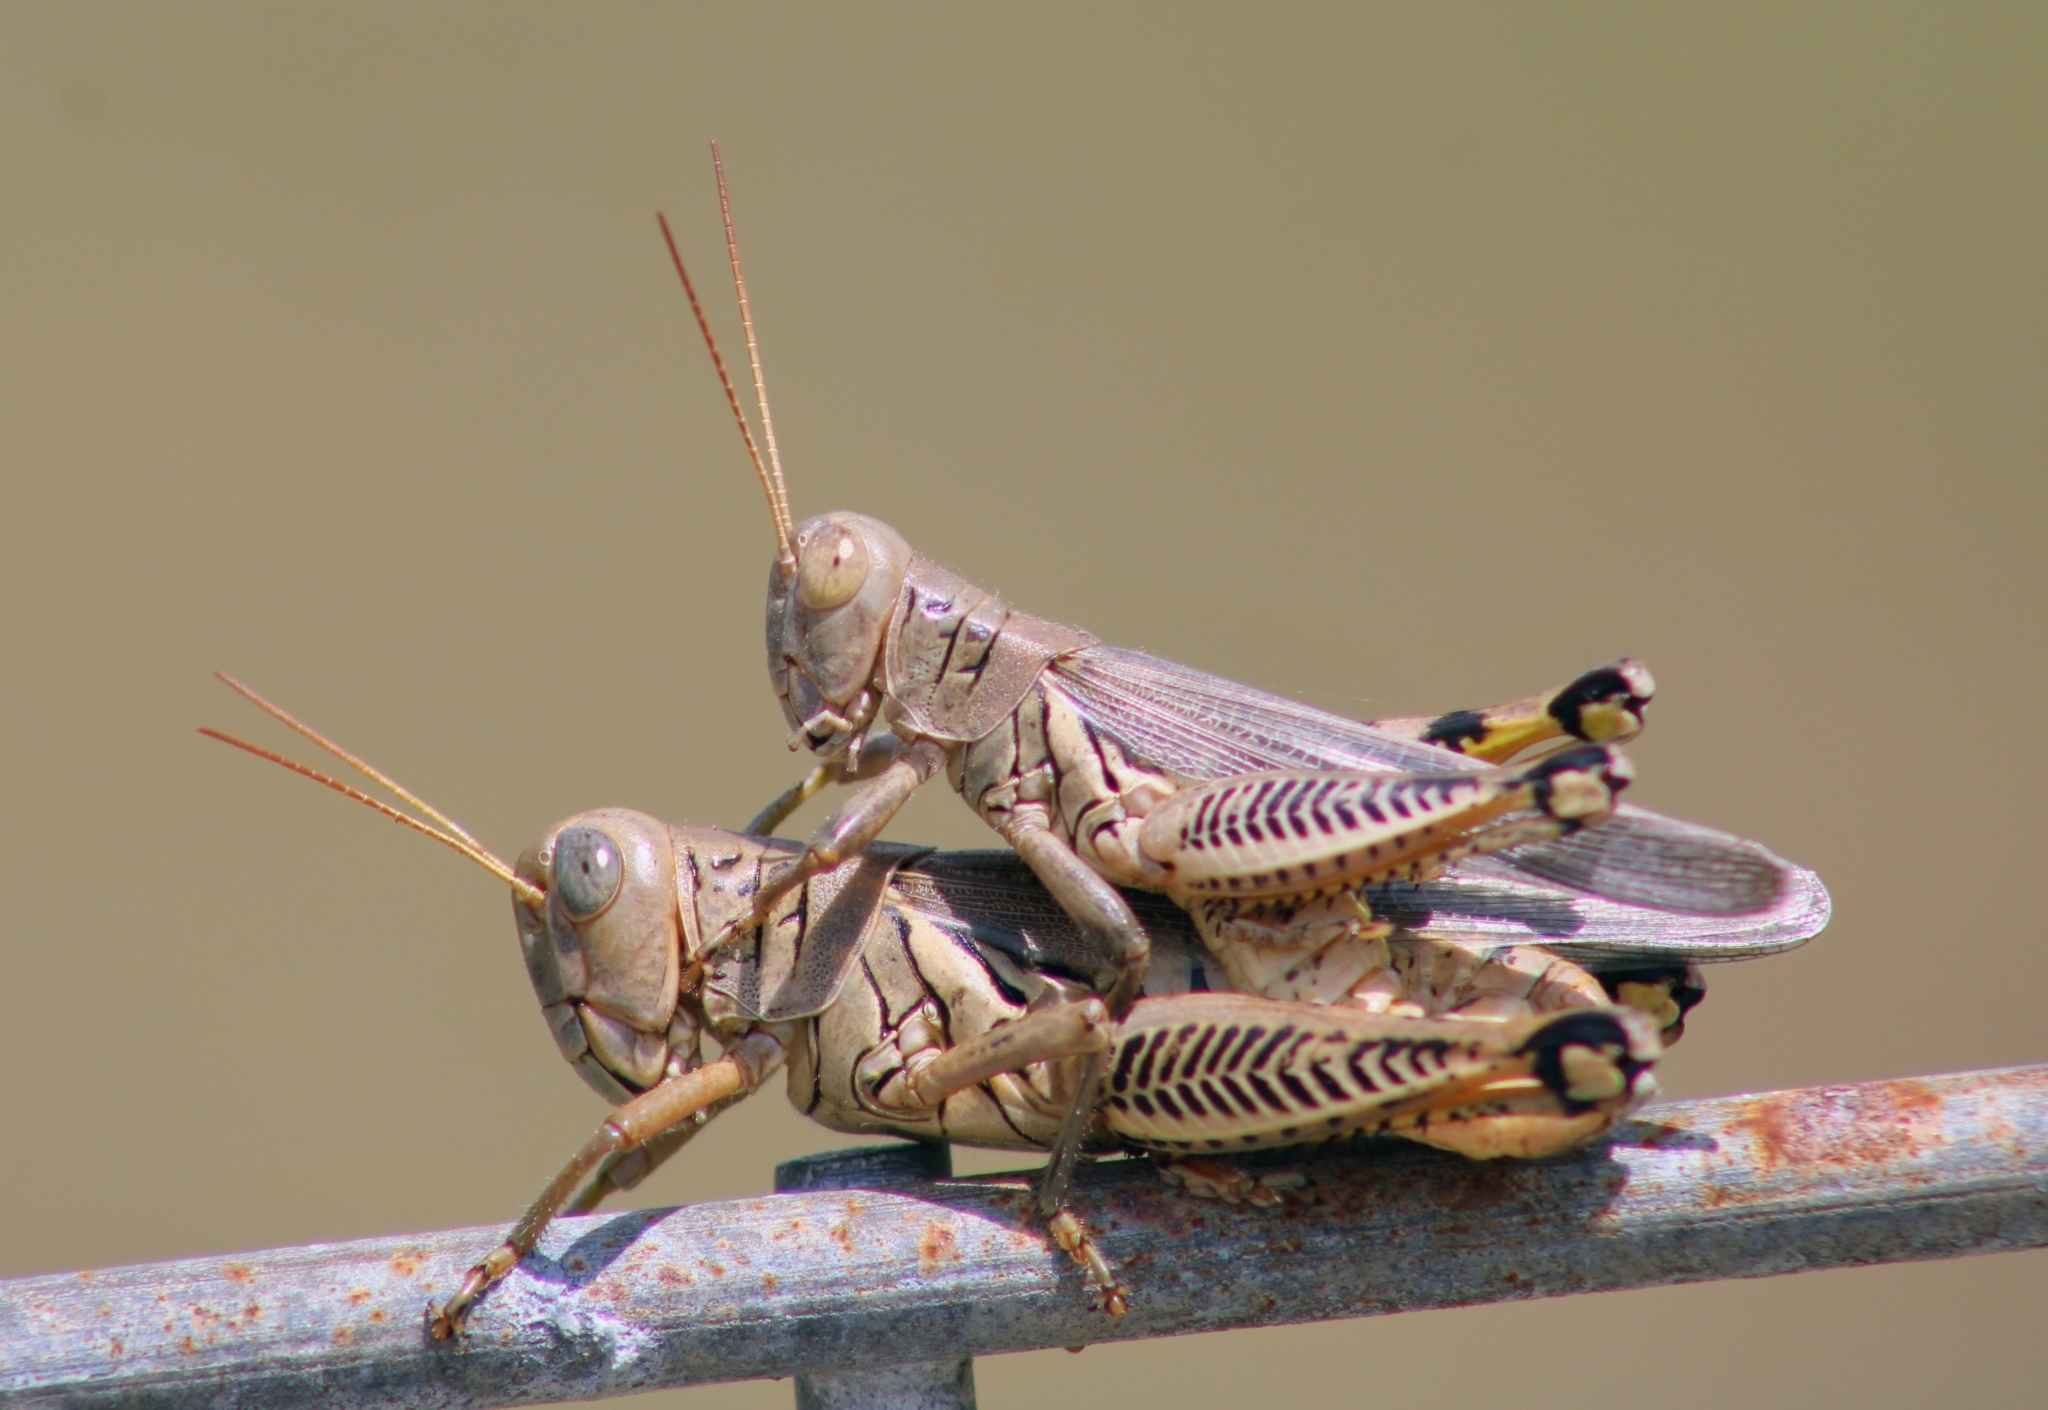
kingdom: Animalia
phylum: Arthropoda
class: Insecta
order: Orthoptera
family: Acrididae
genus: Melanoplus
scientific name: Melanoplus differentialis
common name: Differential grasshopper
